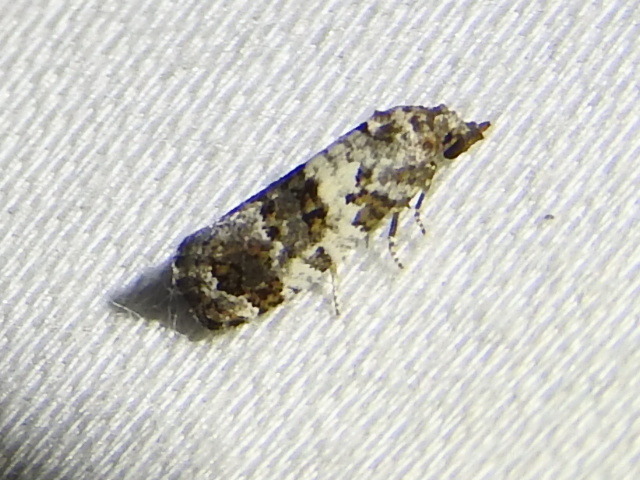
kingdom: Animalia
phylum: Arthropoda
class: Insecta
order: Lepidoptera
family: Tortricidae
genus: Rudenia
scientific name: Rudenia leguminana
